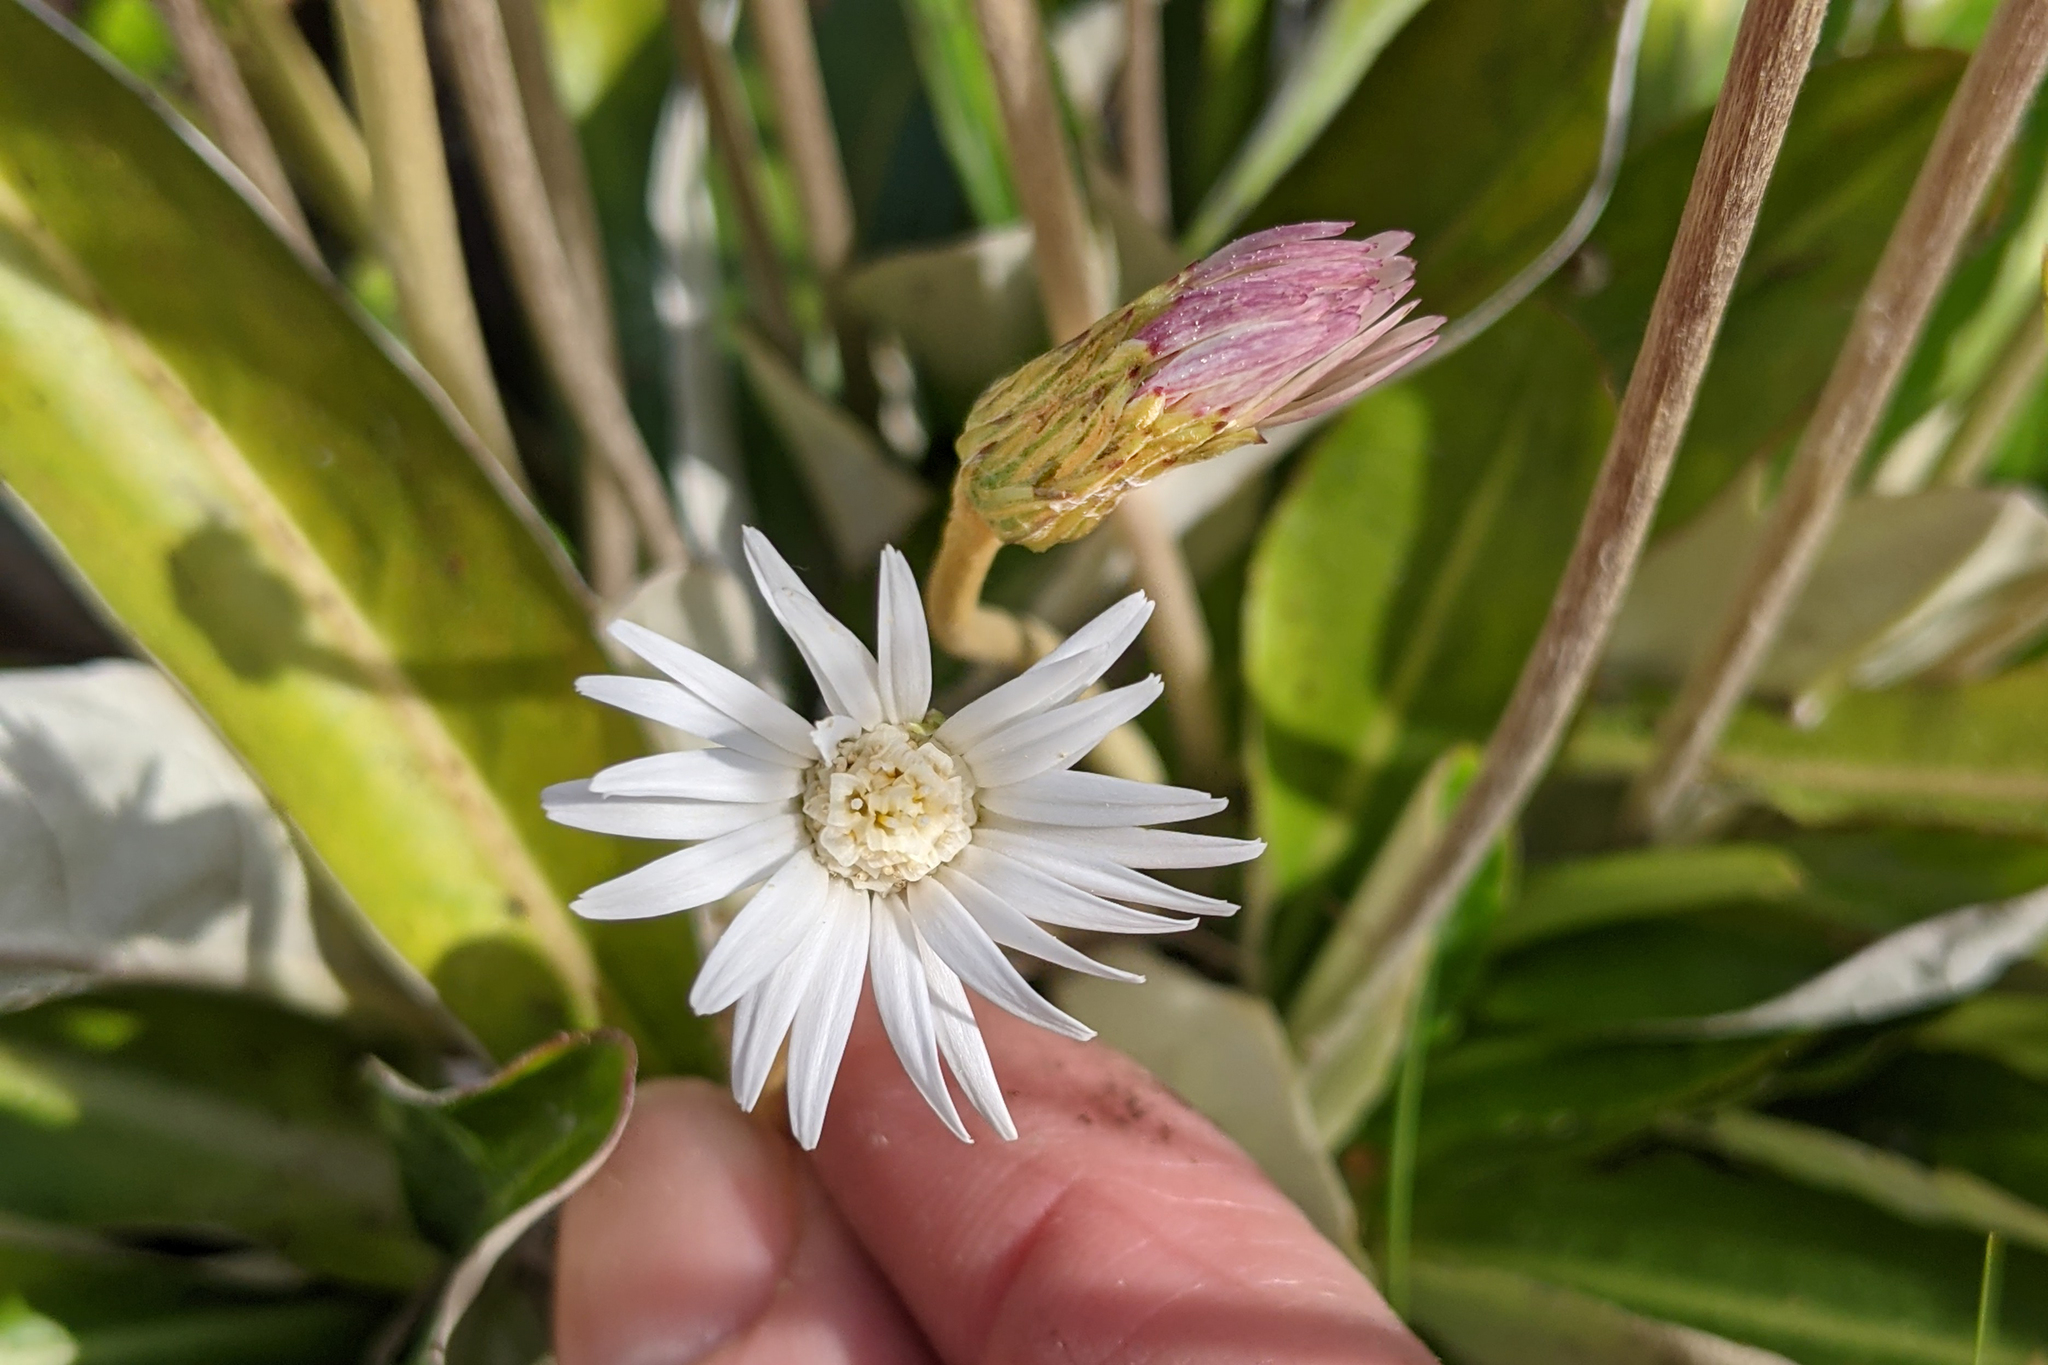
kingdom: Plantae
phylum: Tracheophyta
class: Magnoliopsida
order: Asterales
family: Asteraceae
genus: Chaptalia
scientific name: Chaptalia tomentosa
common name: Woolly sunbonnet
